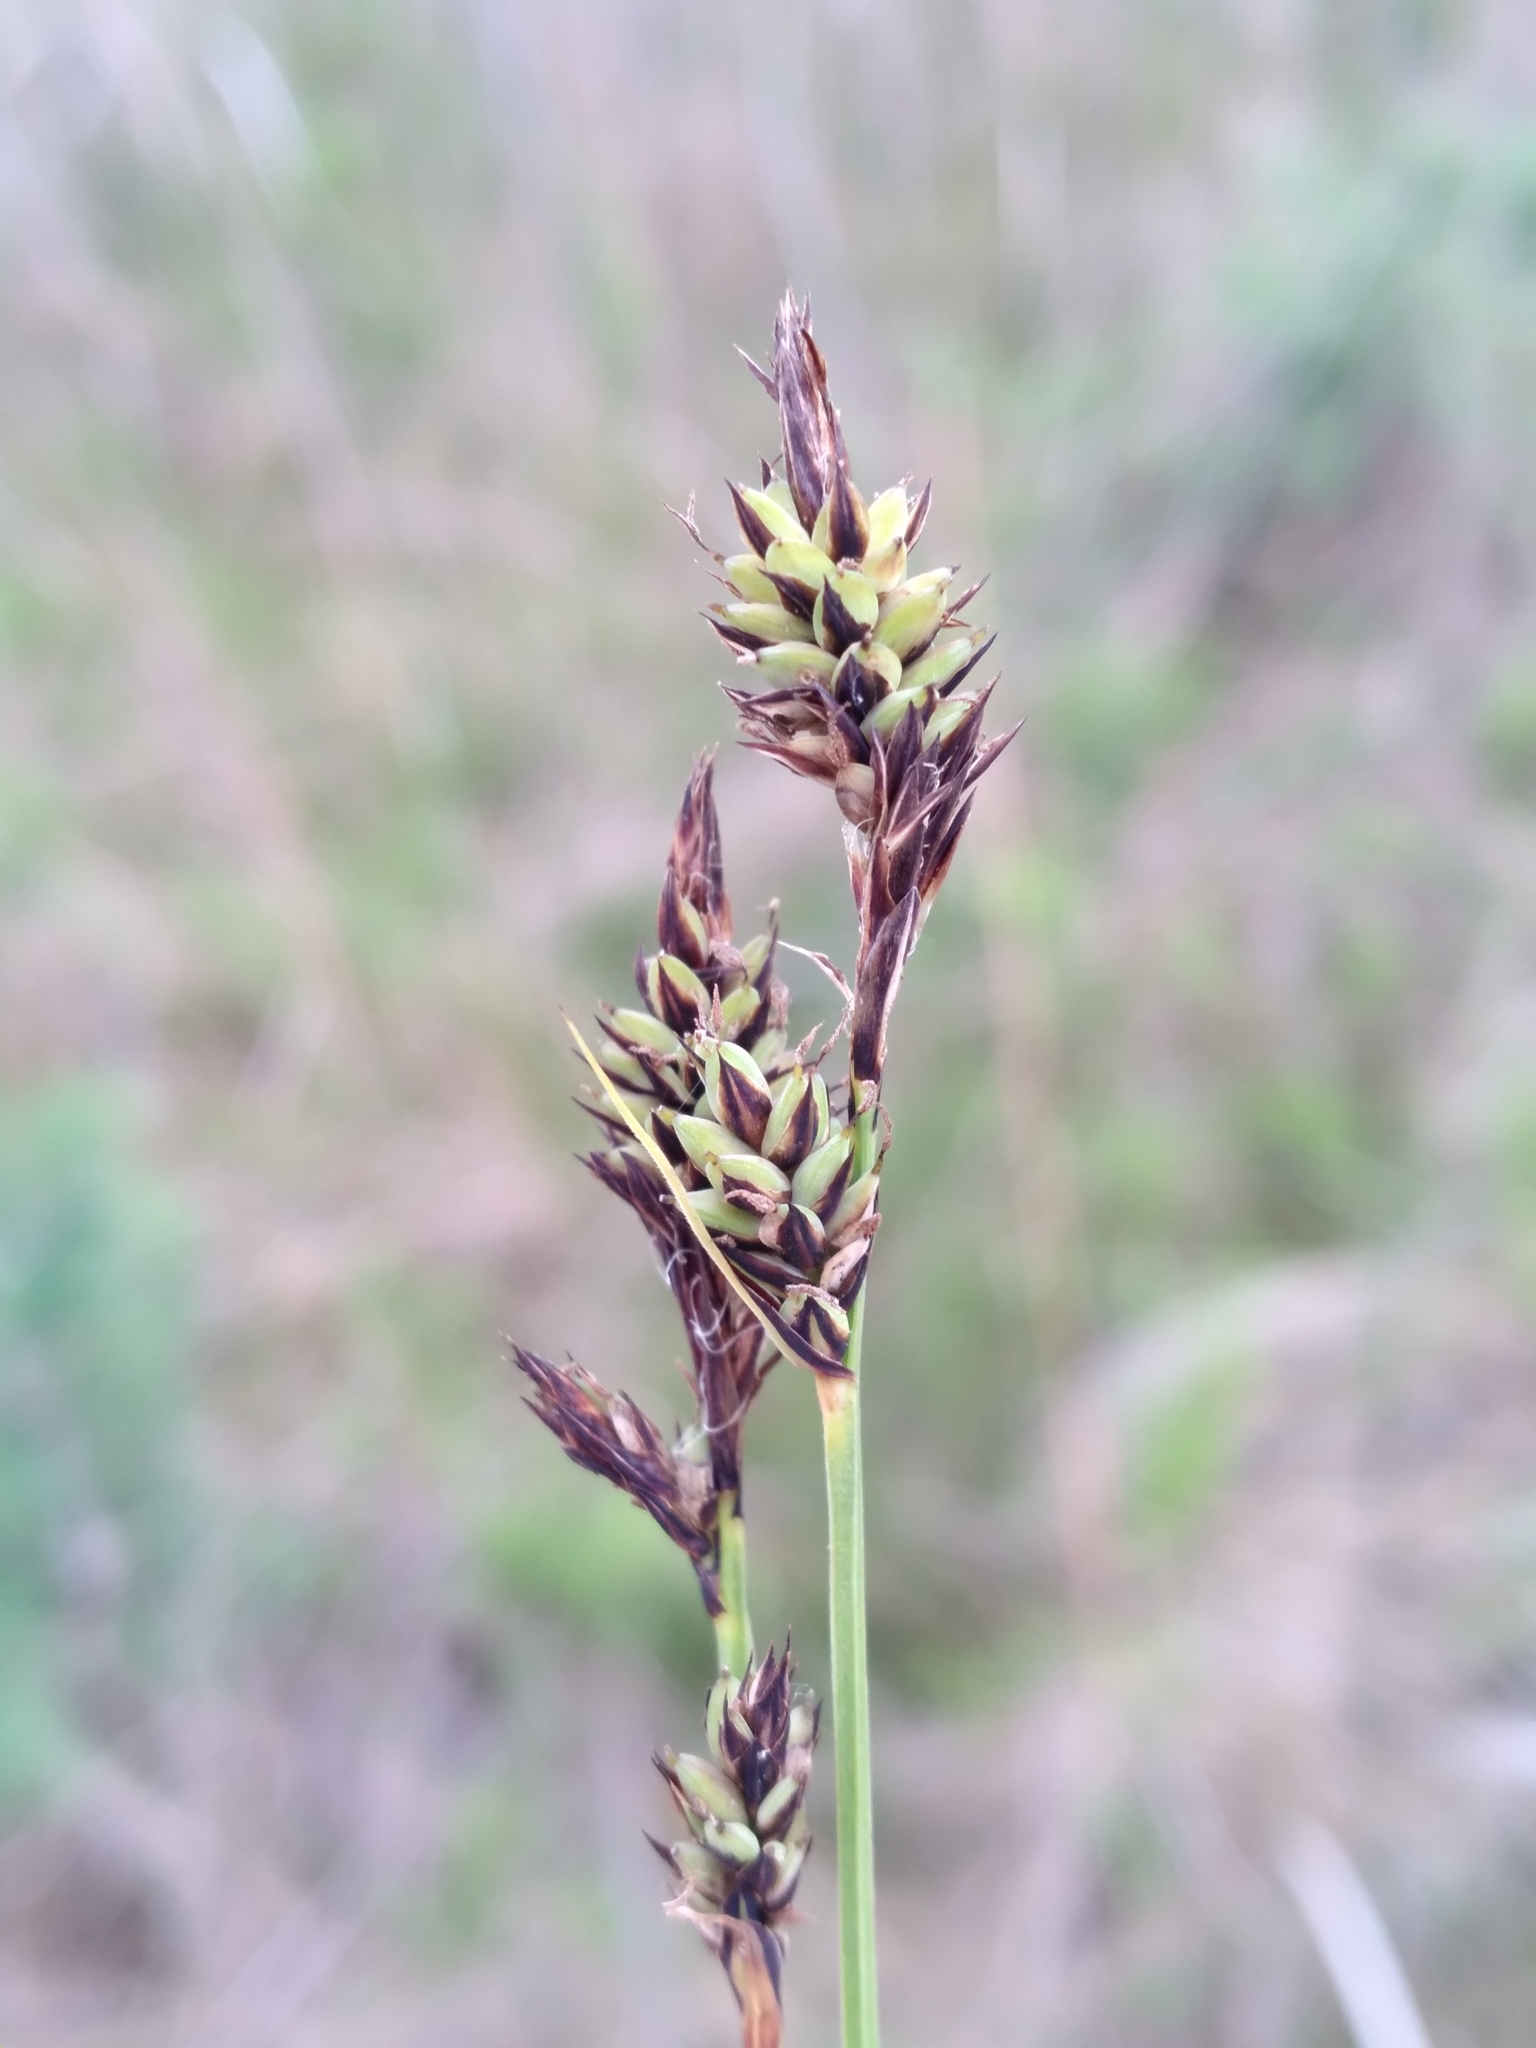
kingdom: Plantae
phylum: Tracheophyta
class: Liliopsida
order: Poales
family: Cyperaceae
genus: Carex
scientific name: Carex buxbaumii
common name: Club sedge
